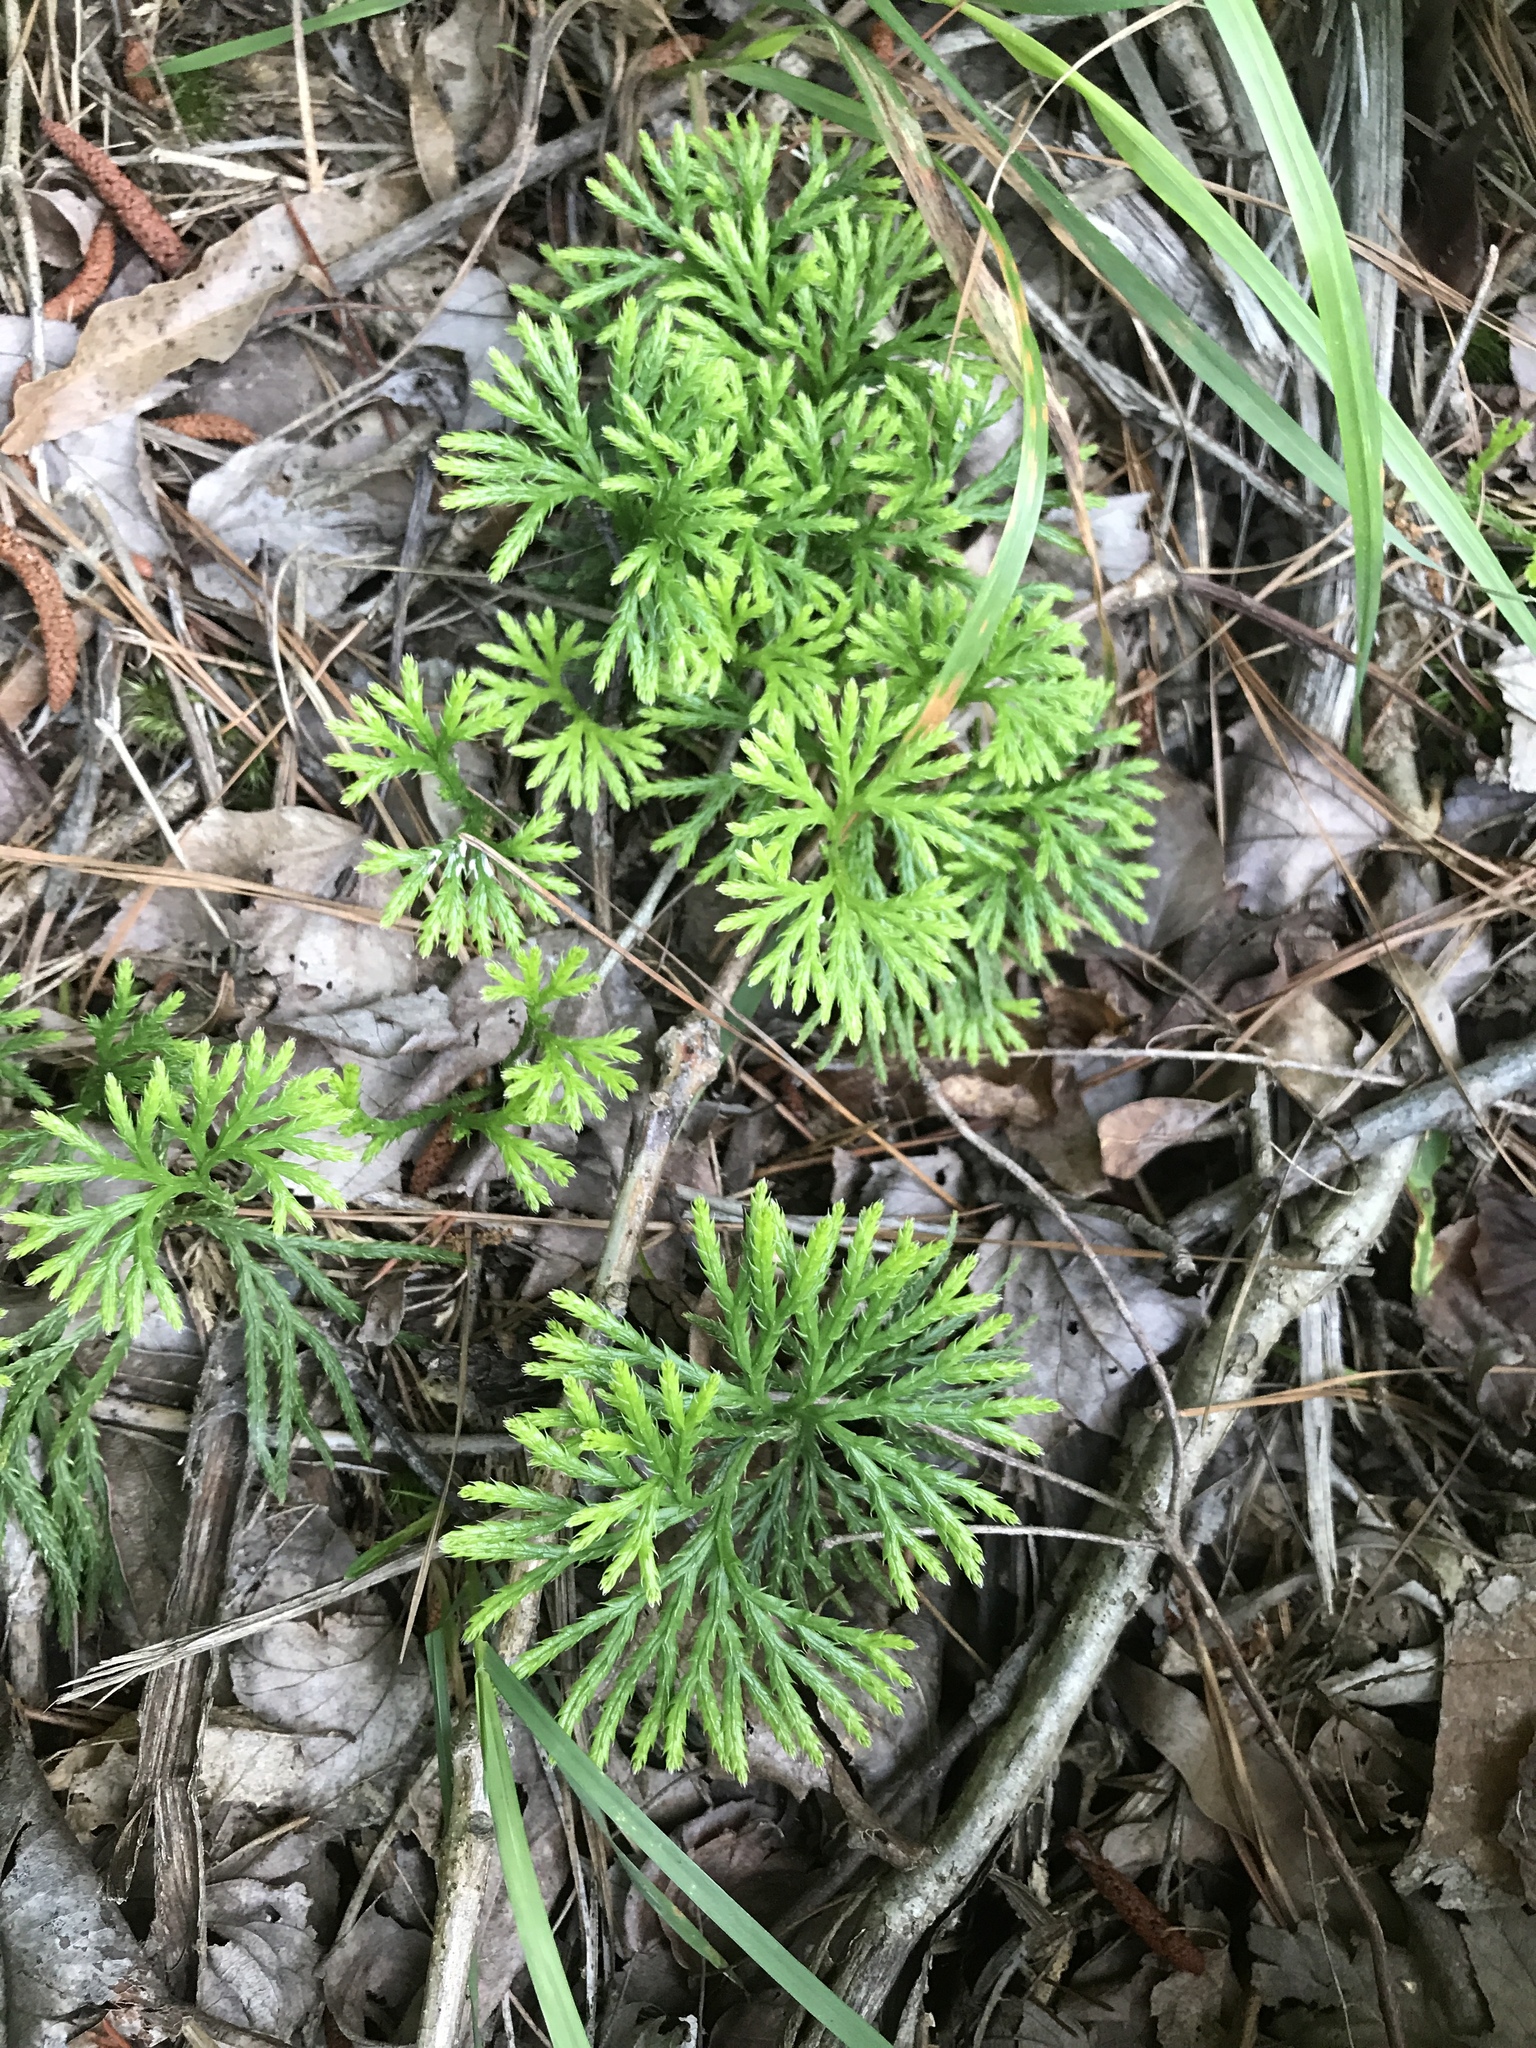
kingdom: Plantae
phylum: Tracheophyta
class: Lycopodiopsida
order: Lycopodiales
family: Lycopodiaceae
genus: Diphasiastrum
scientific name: Diphasiastrum digitatum
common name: Southern running-pine
